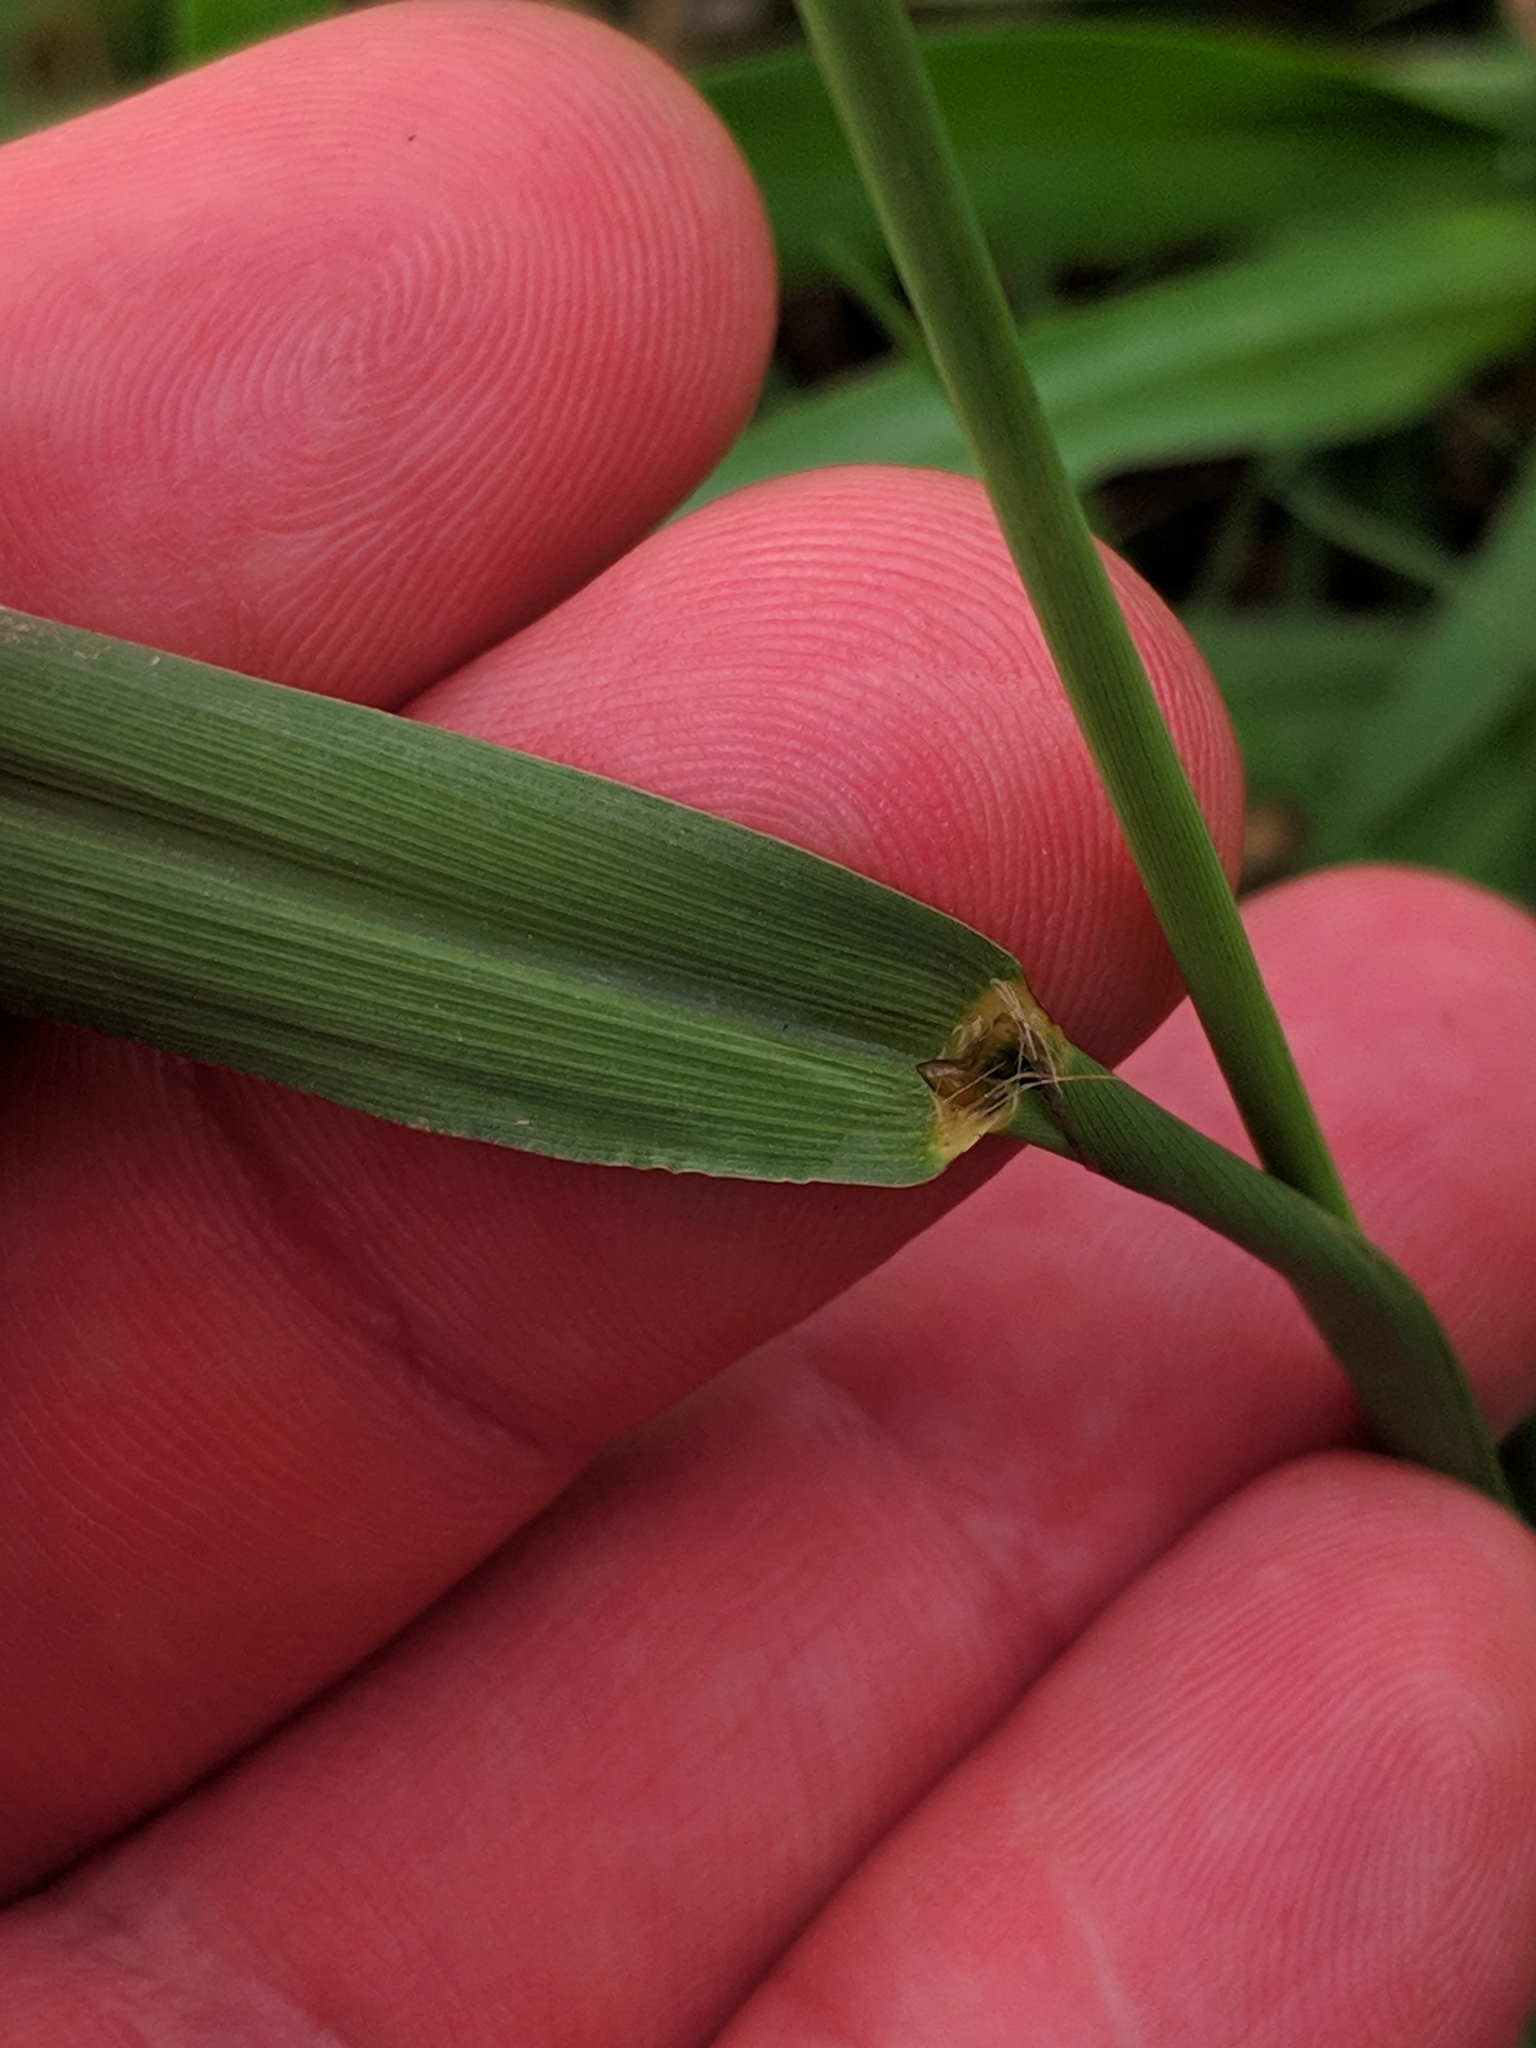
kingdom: Plantae
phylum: Tracheophyta
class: Liliopsida
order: Poales
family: Poaceae
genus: Paspalum
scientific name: Paspalum dilatatum
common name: Dallisgrass
